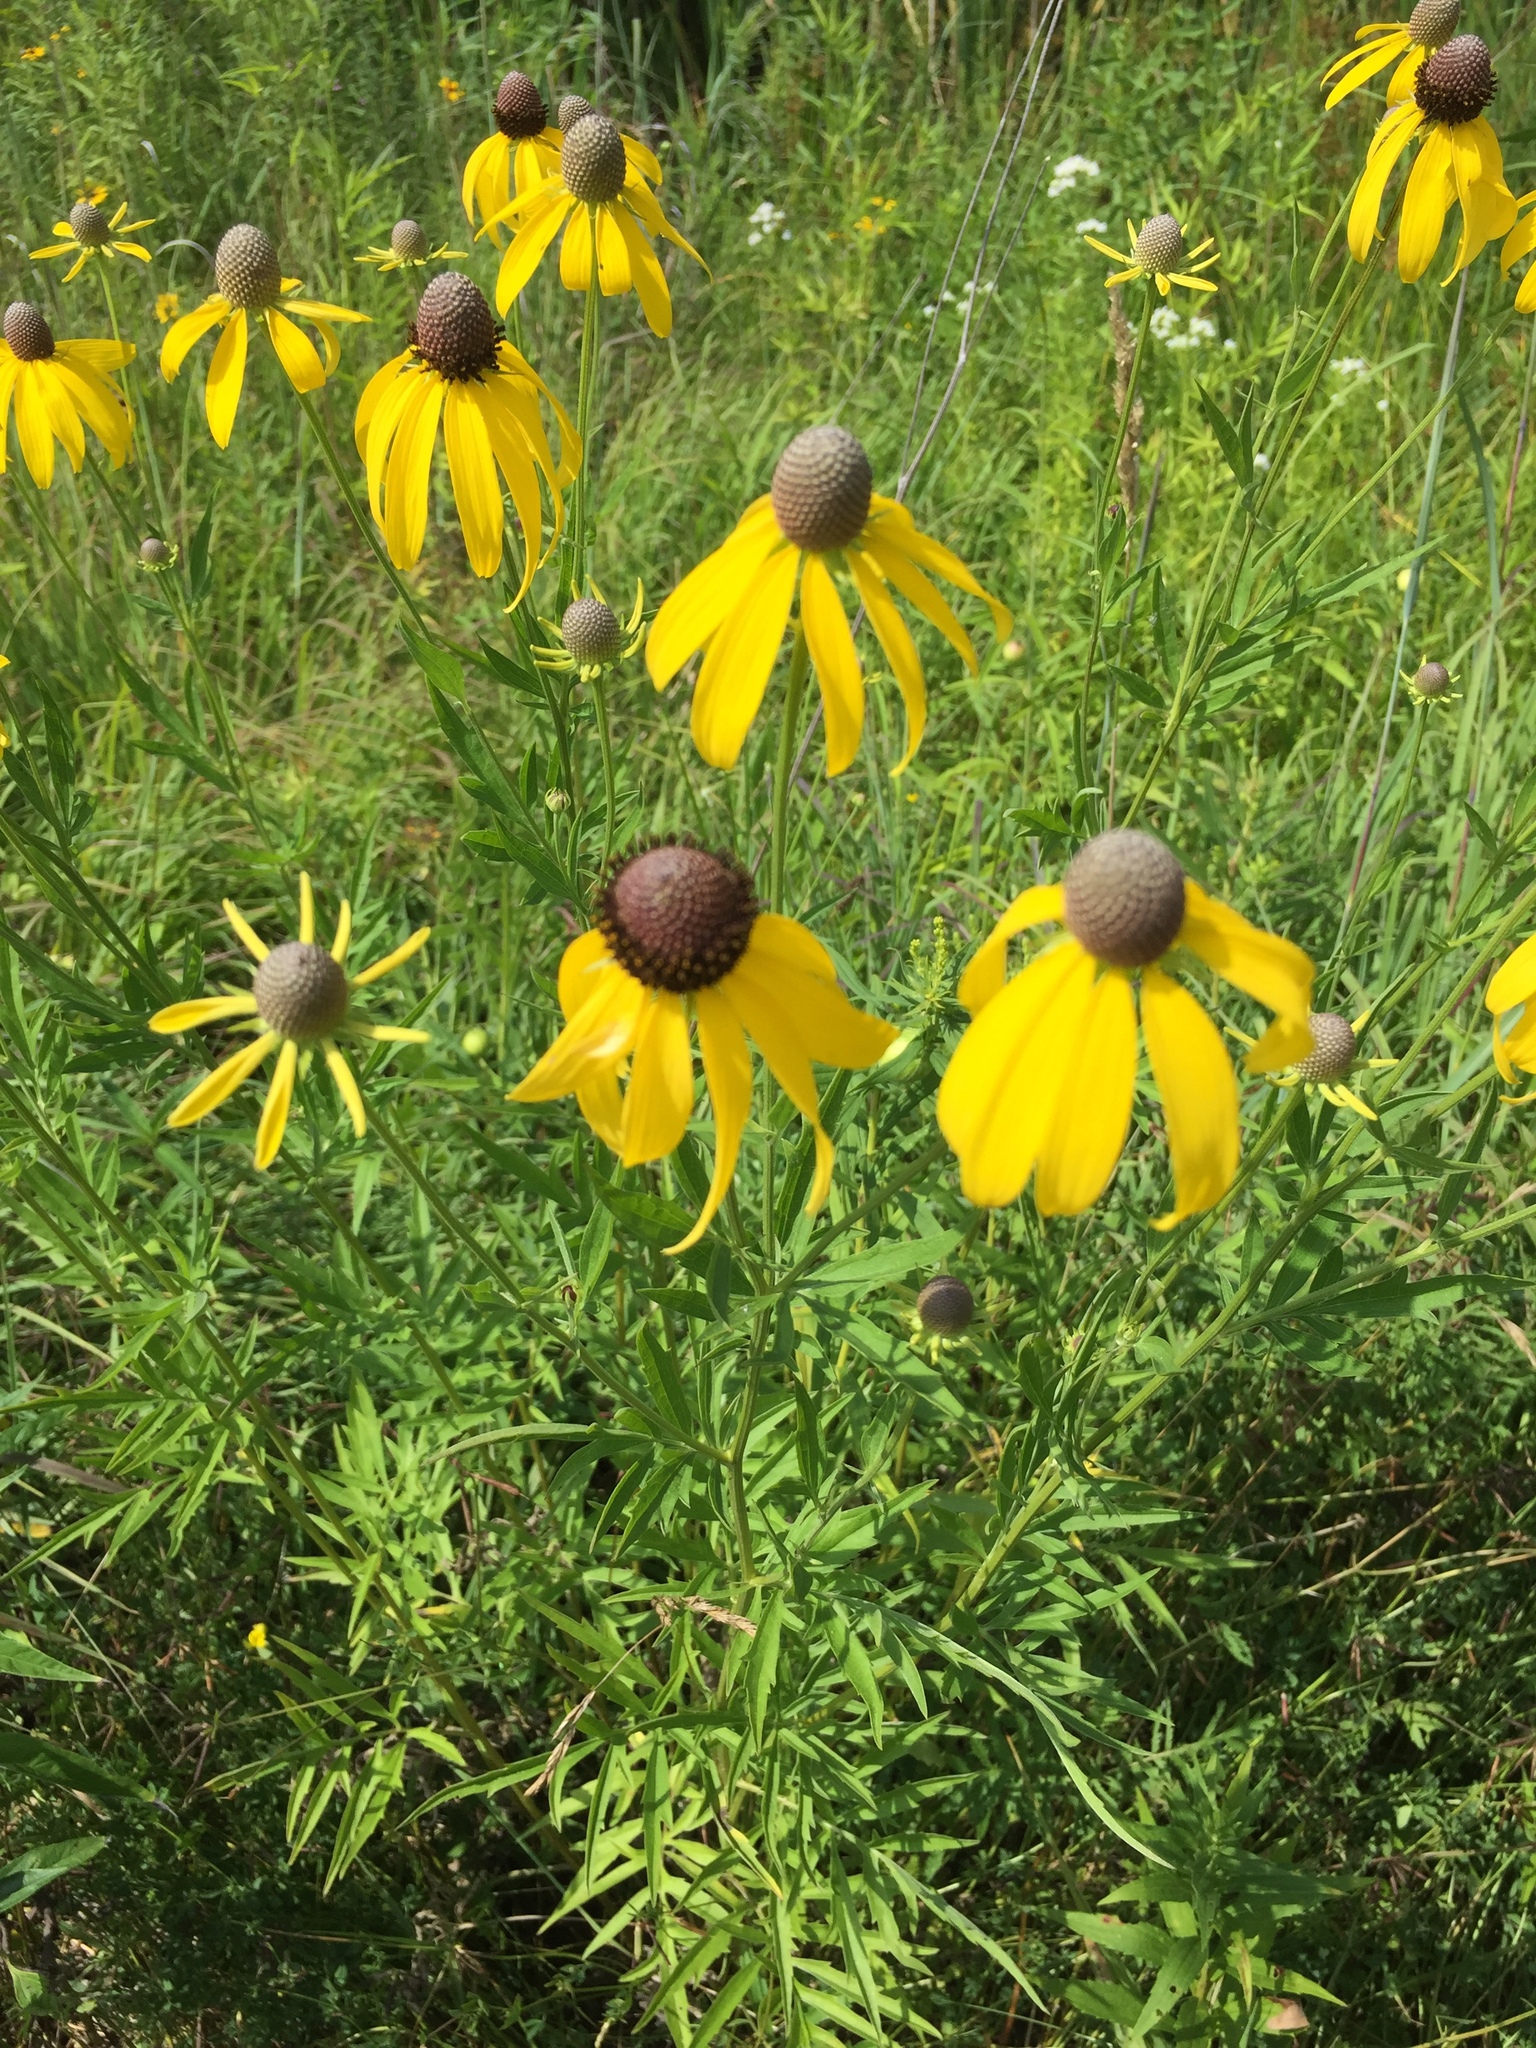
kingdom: Plantae
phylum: Tracheophyta
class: Magnoliopsida
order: Asterales
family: Asteraceae
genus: Ratibida
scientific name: Ratibida pinnata
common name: Drooping prairie-coneflower
